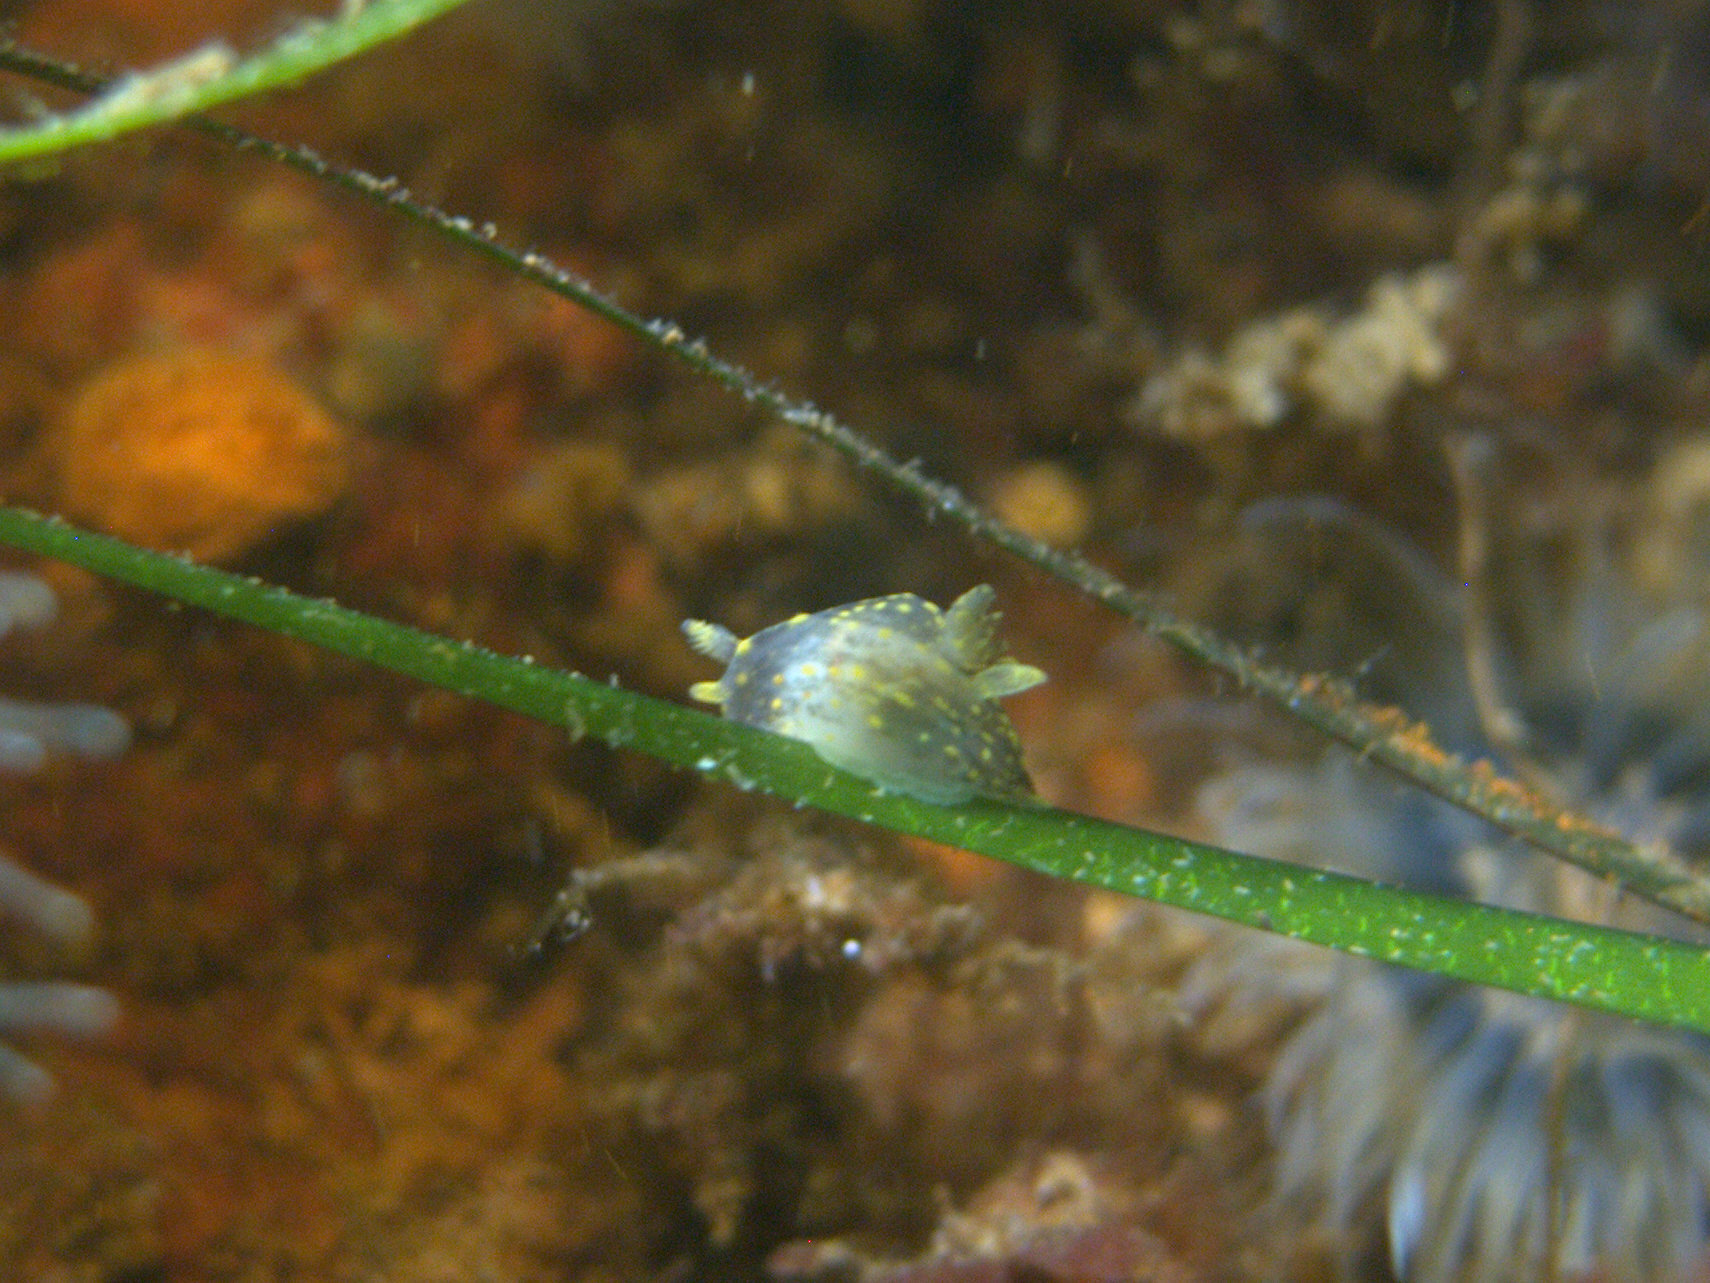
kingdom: Animalia
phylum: Mollusca
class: Gastropoda
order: Nudibranchia
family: Polyceridae
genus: Polycera
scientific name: Polycera quadrilineata
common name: Four-striped polycera
